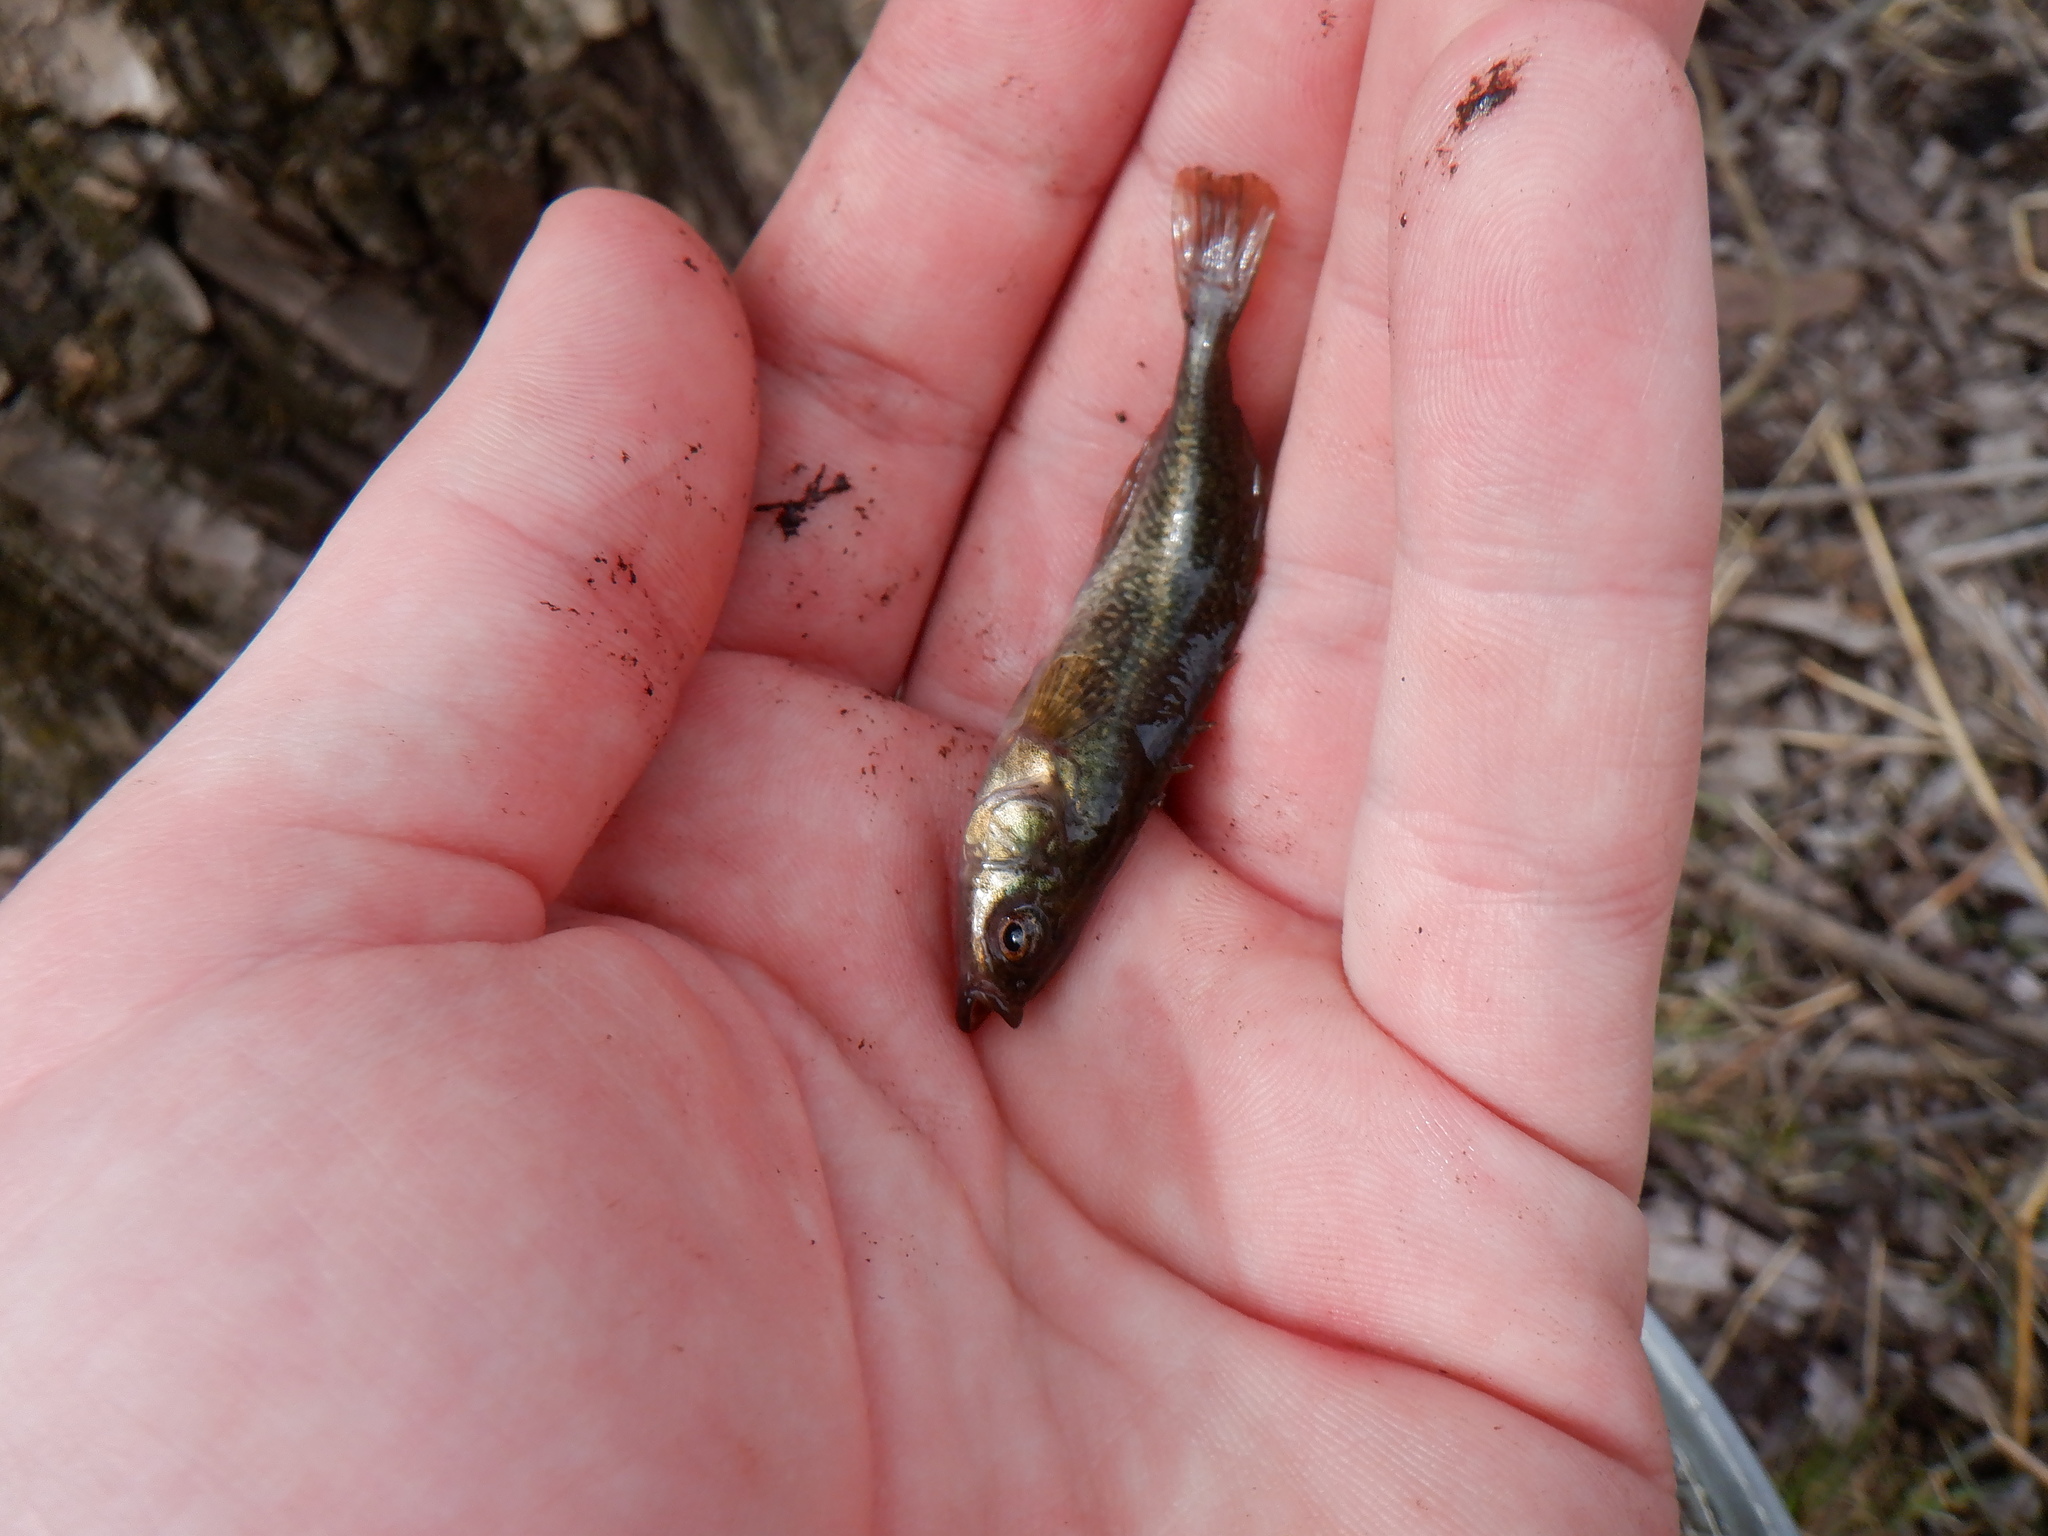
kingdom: Animalia
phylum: Chordata
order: Gasterosteiformes
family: Gasterosteidae
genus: Culaea
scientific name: Culaea inconstans
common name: Brook stickleback
